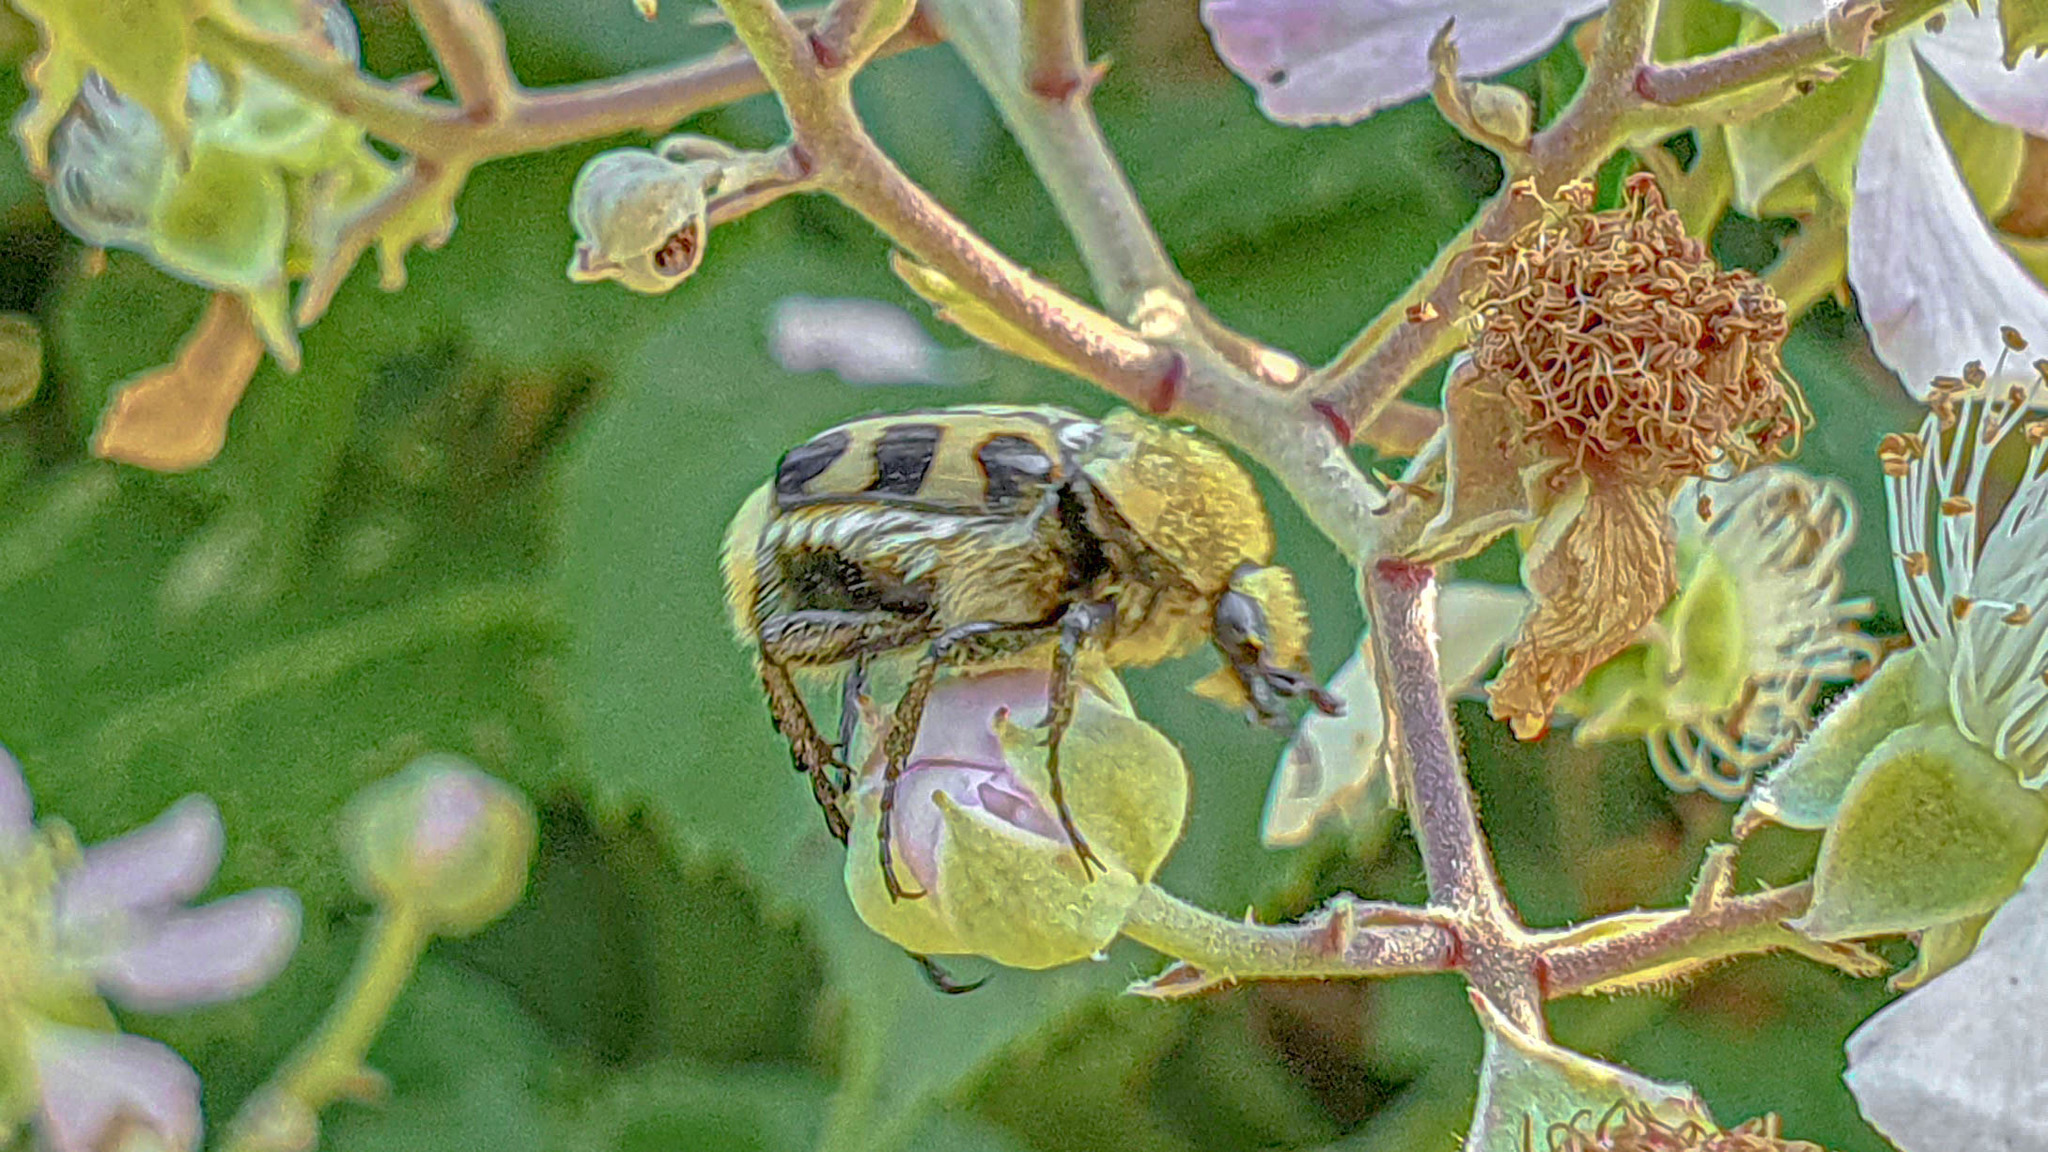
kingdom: Animalia
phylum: Arthropoda
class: Insecta
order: Coleoptera
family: Scarabaeidae
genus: Trichius
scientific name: Trichius gallicus
